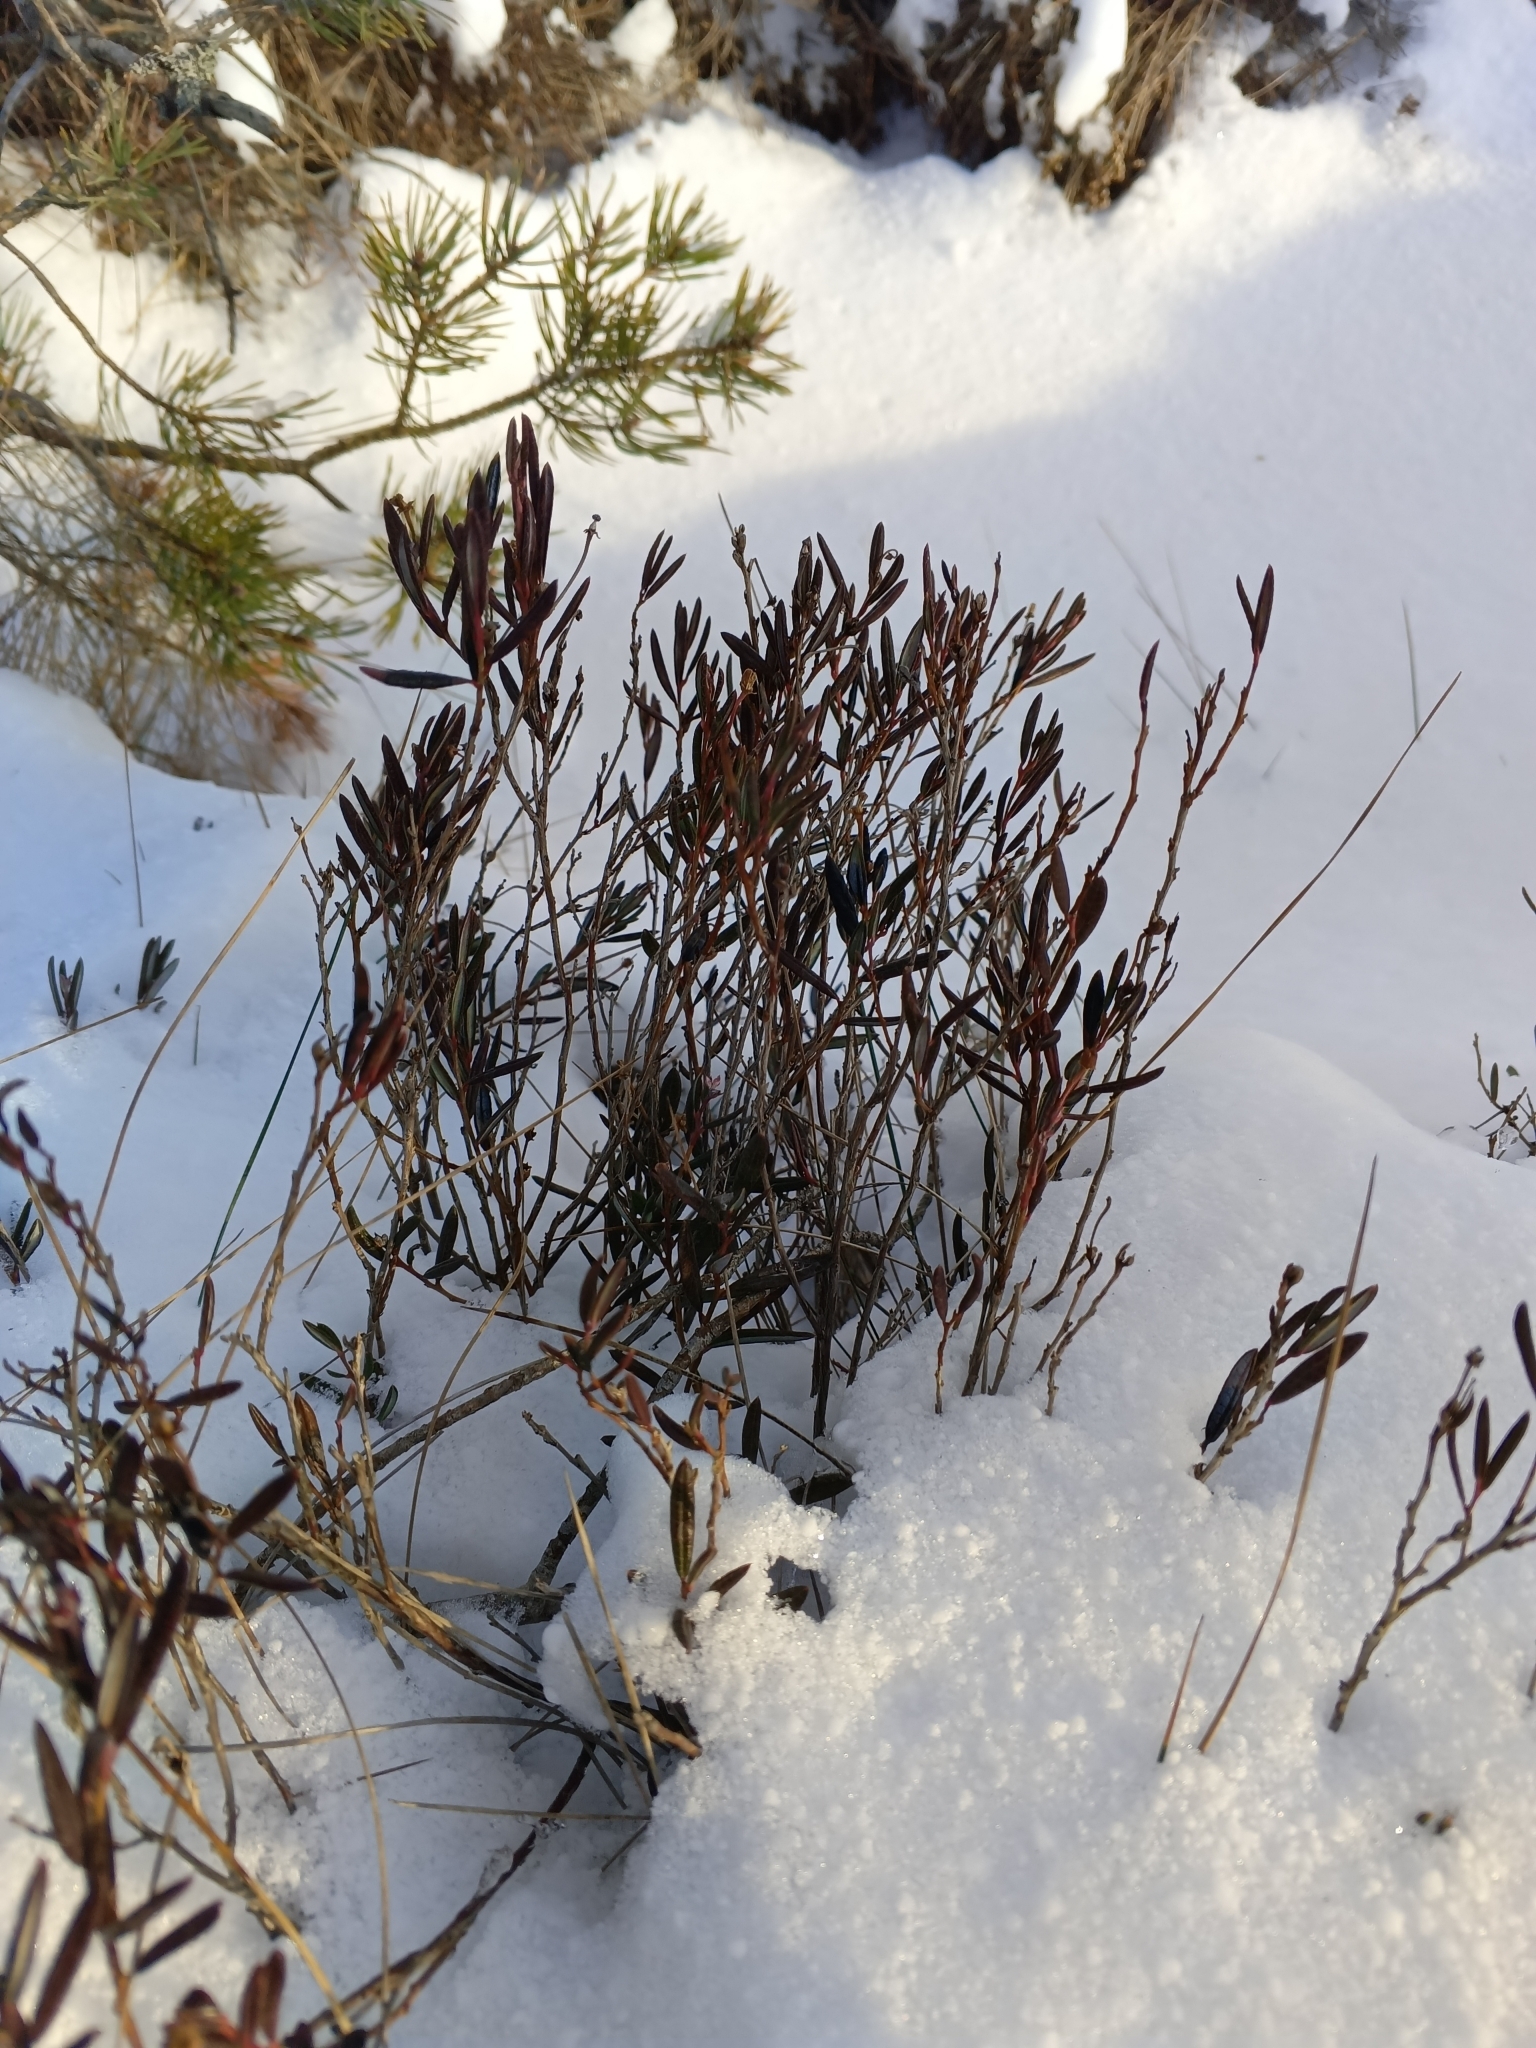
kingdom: Plantae
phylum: Tracheophyta
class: Magnoliopsida
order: Ericales
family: Ericaceae
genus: Andromeda
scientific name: Andromeda polifolia
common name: Bog-rosemary
